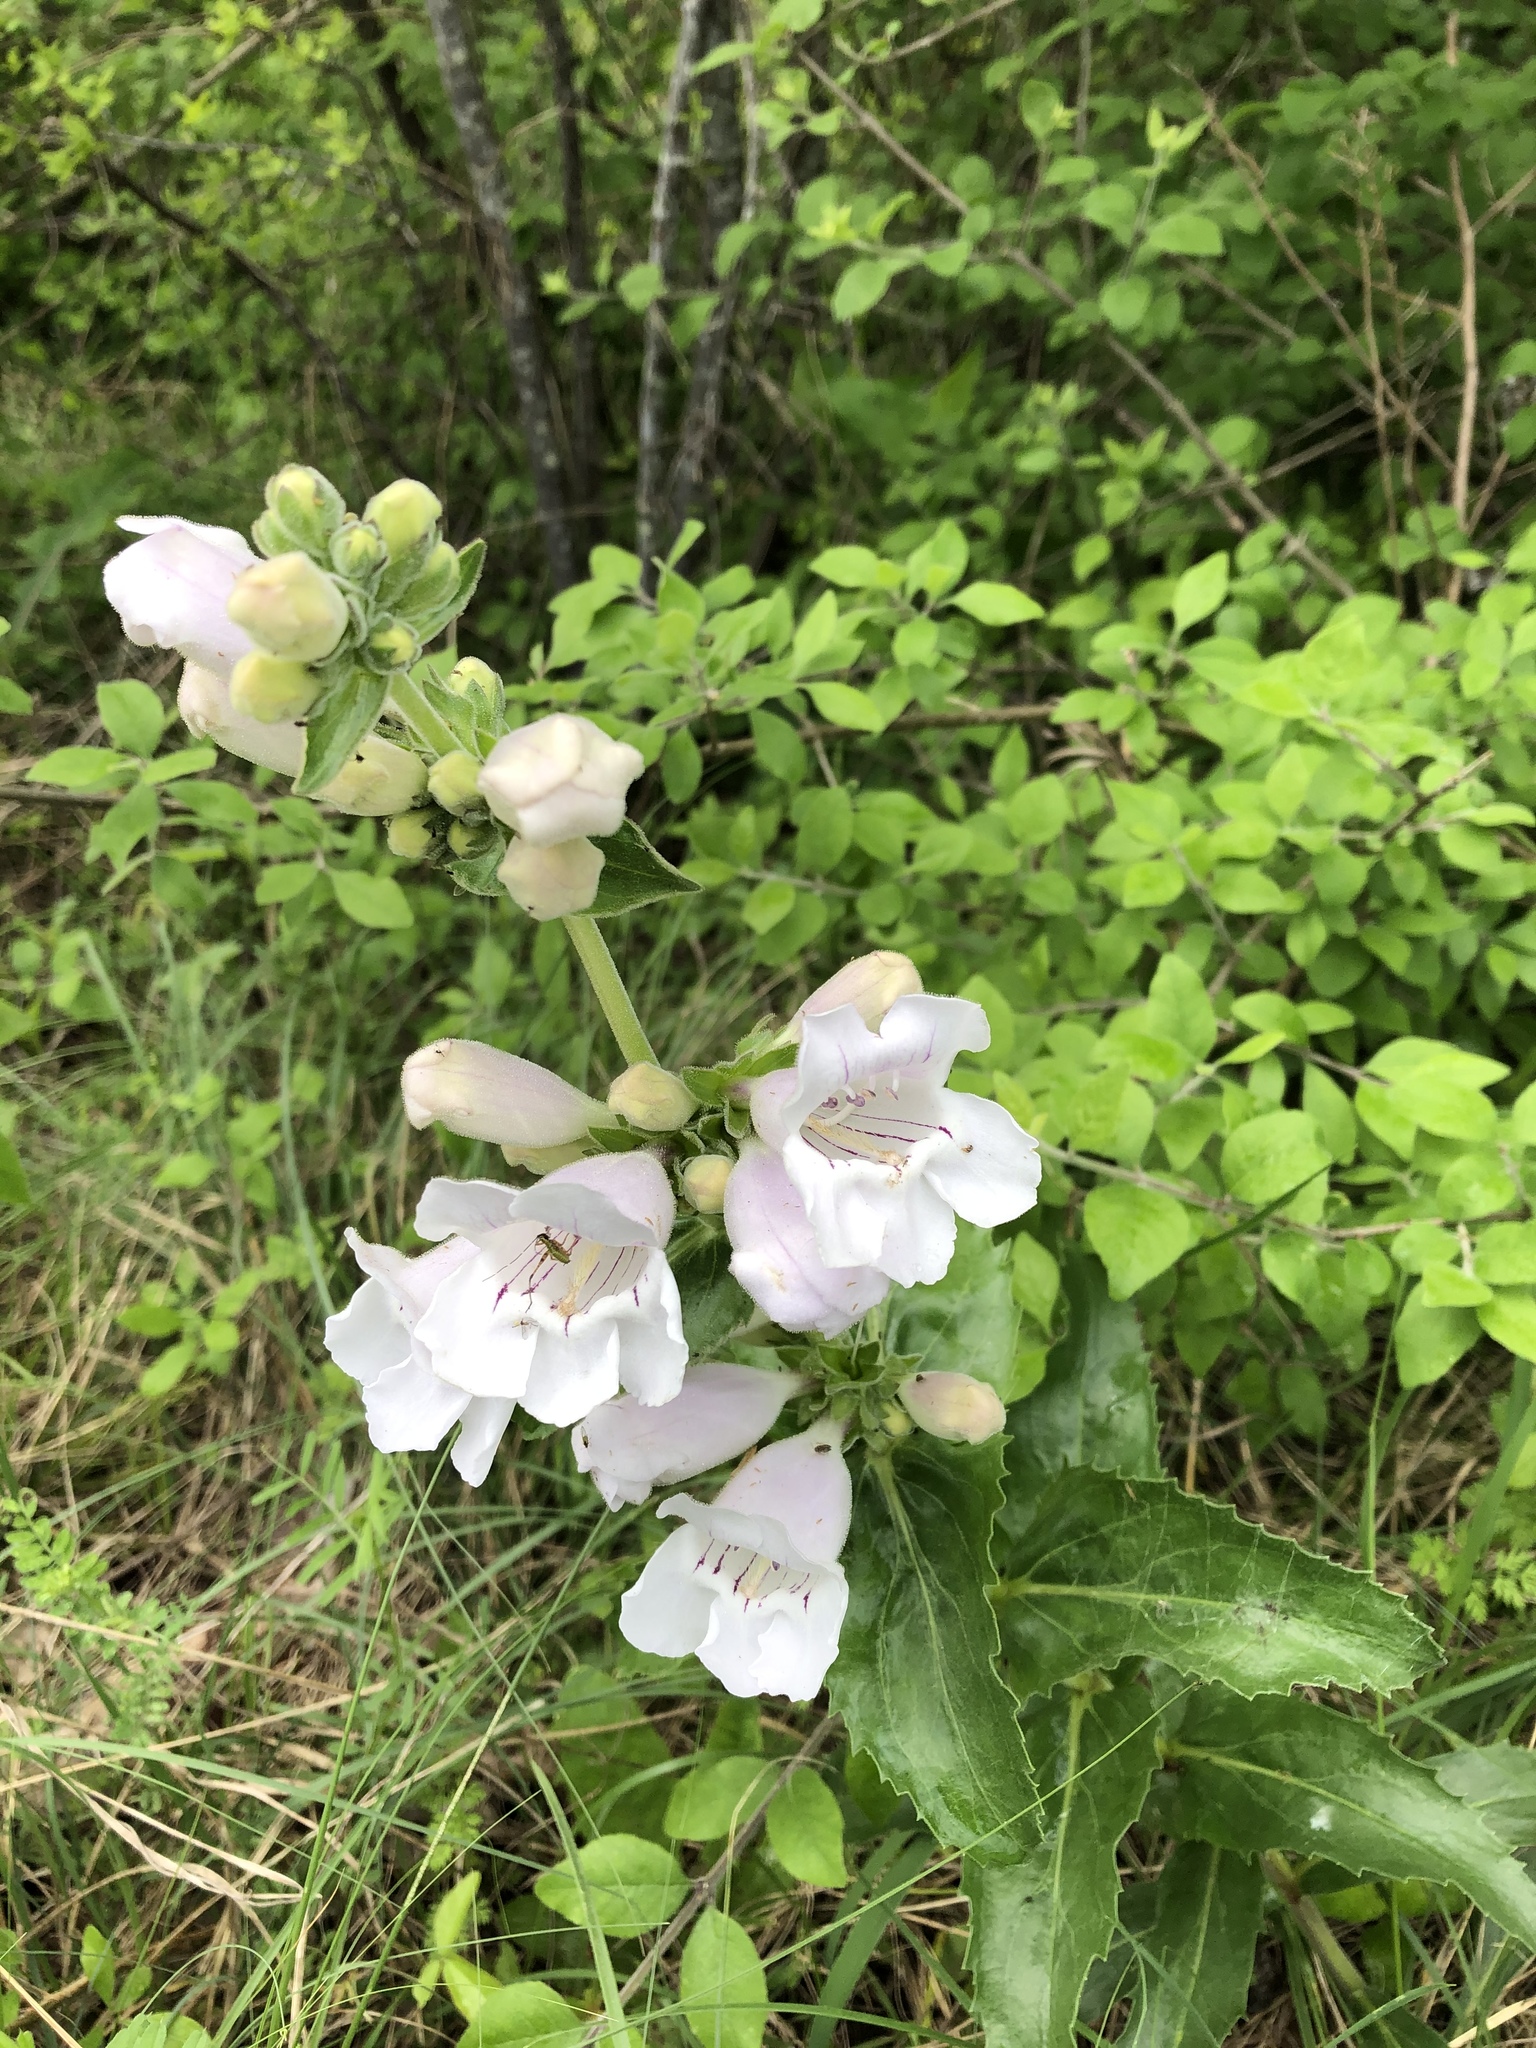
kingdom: Plantae
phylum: Tracheophyta
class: Magnoliopsida
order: Lamiales
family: Plantaginaceae
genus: Penstemon
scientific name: Penstemon cobaea
